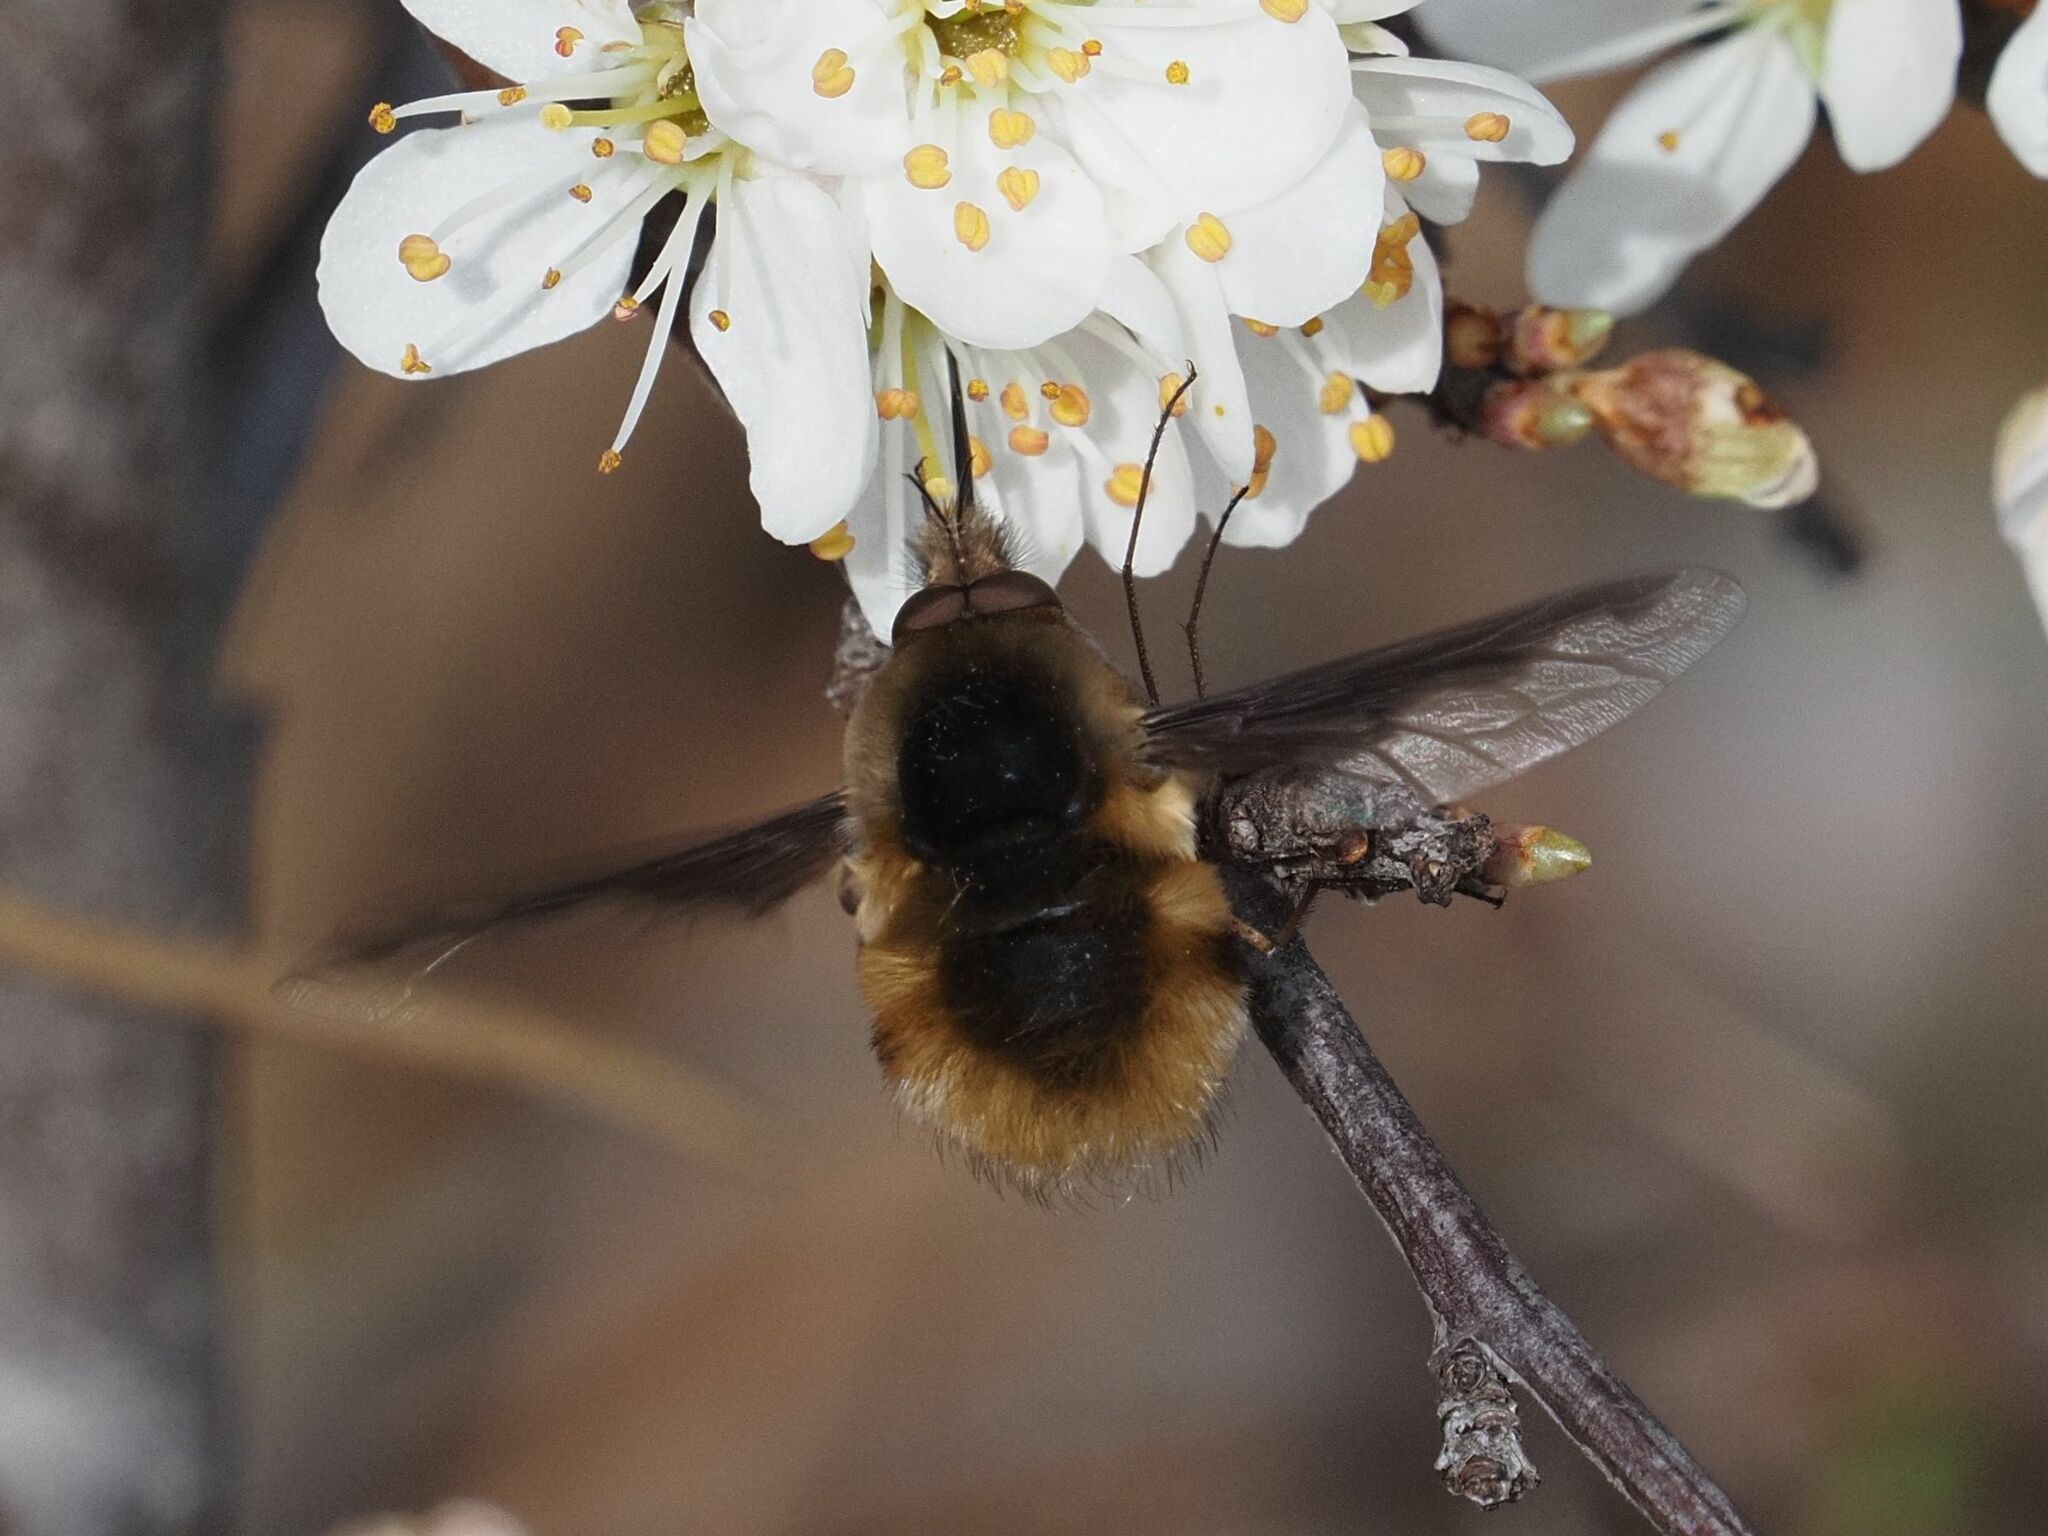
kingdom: Animalia
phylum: Arthropoda
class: Insecta
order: Diptera
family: Bombyliidae
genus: Bombylius
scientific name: Bombylius major
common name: Bee fly
